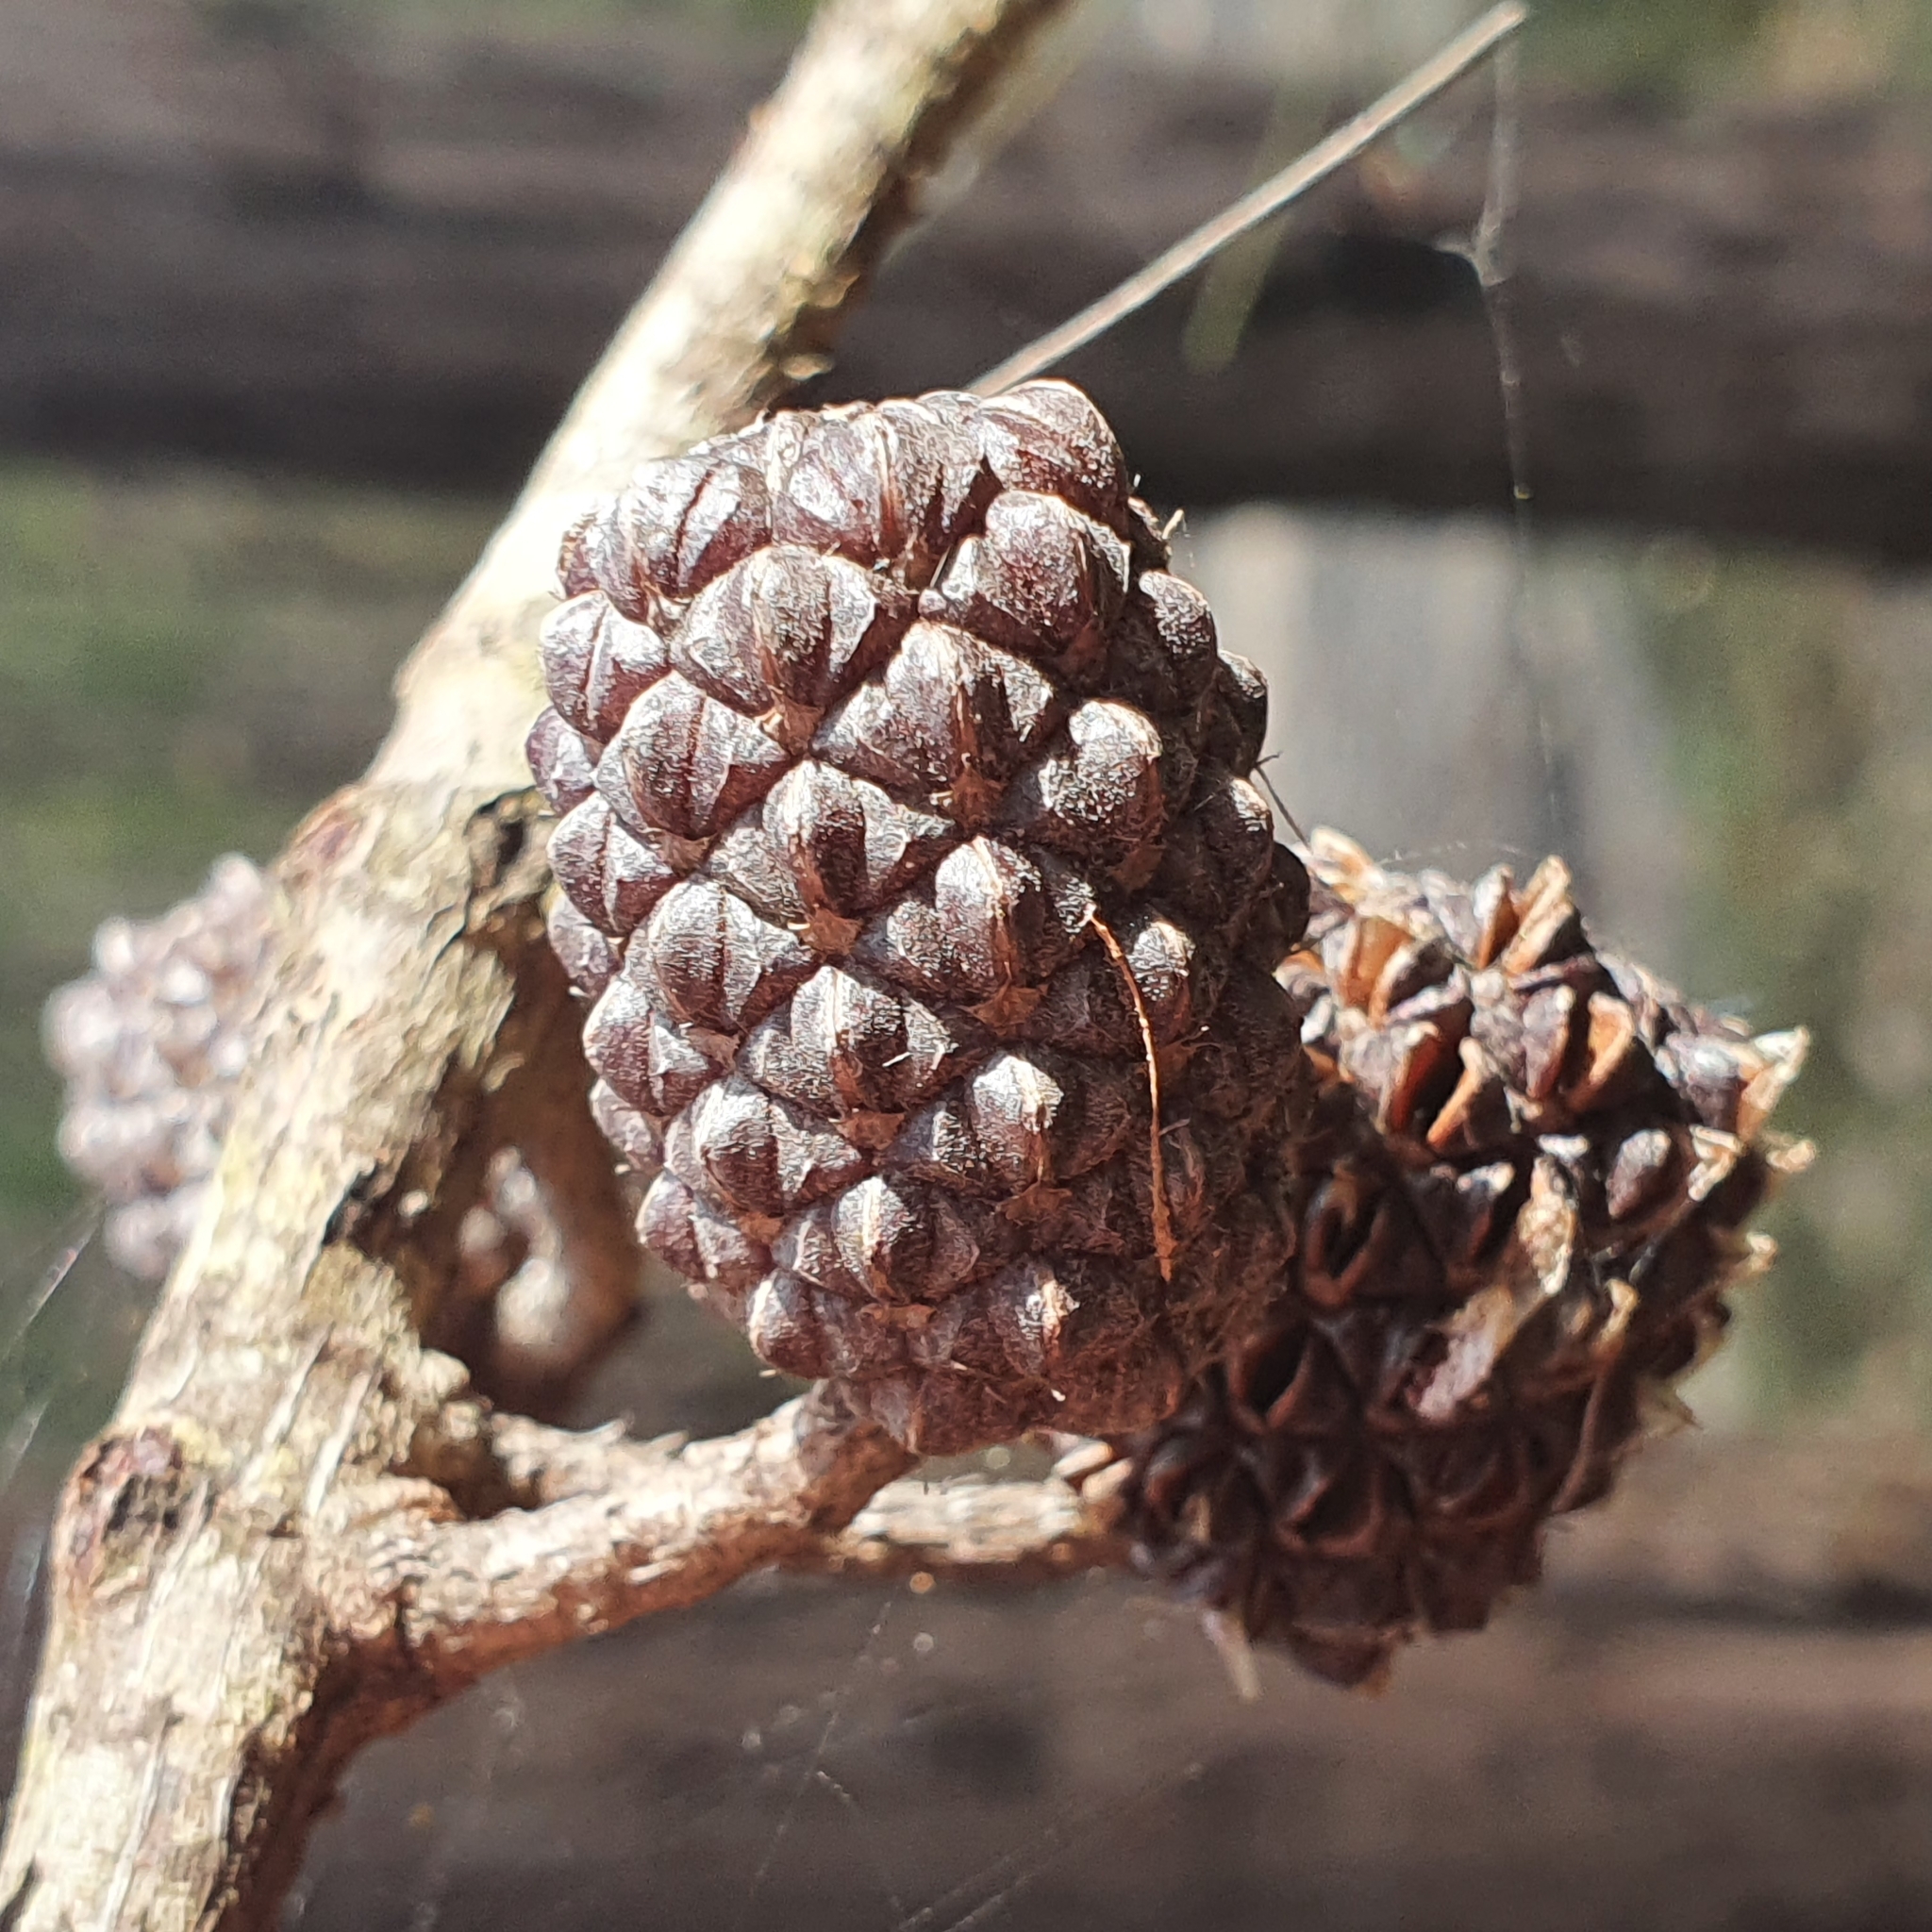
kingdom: Plantae
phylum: Tracheophyta
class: Magnoliopsida
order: Fagales
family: Casuarinaceae
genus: Allocasuarina
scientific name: Allocasuarina littoralis
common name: Black she-oak
